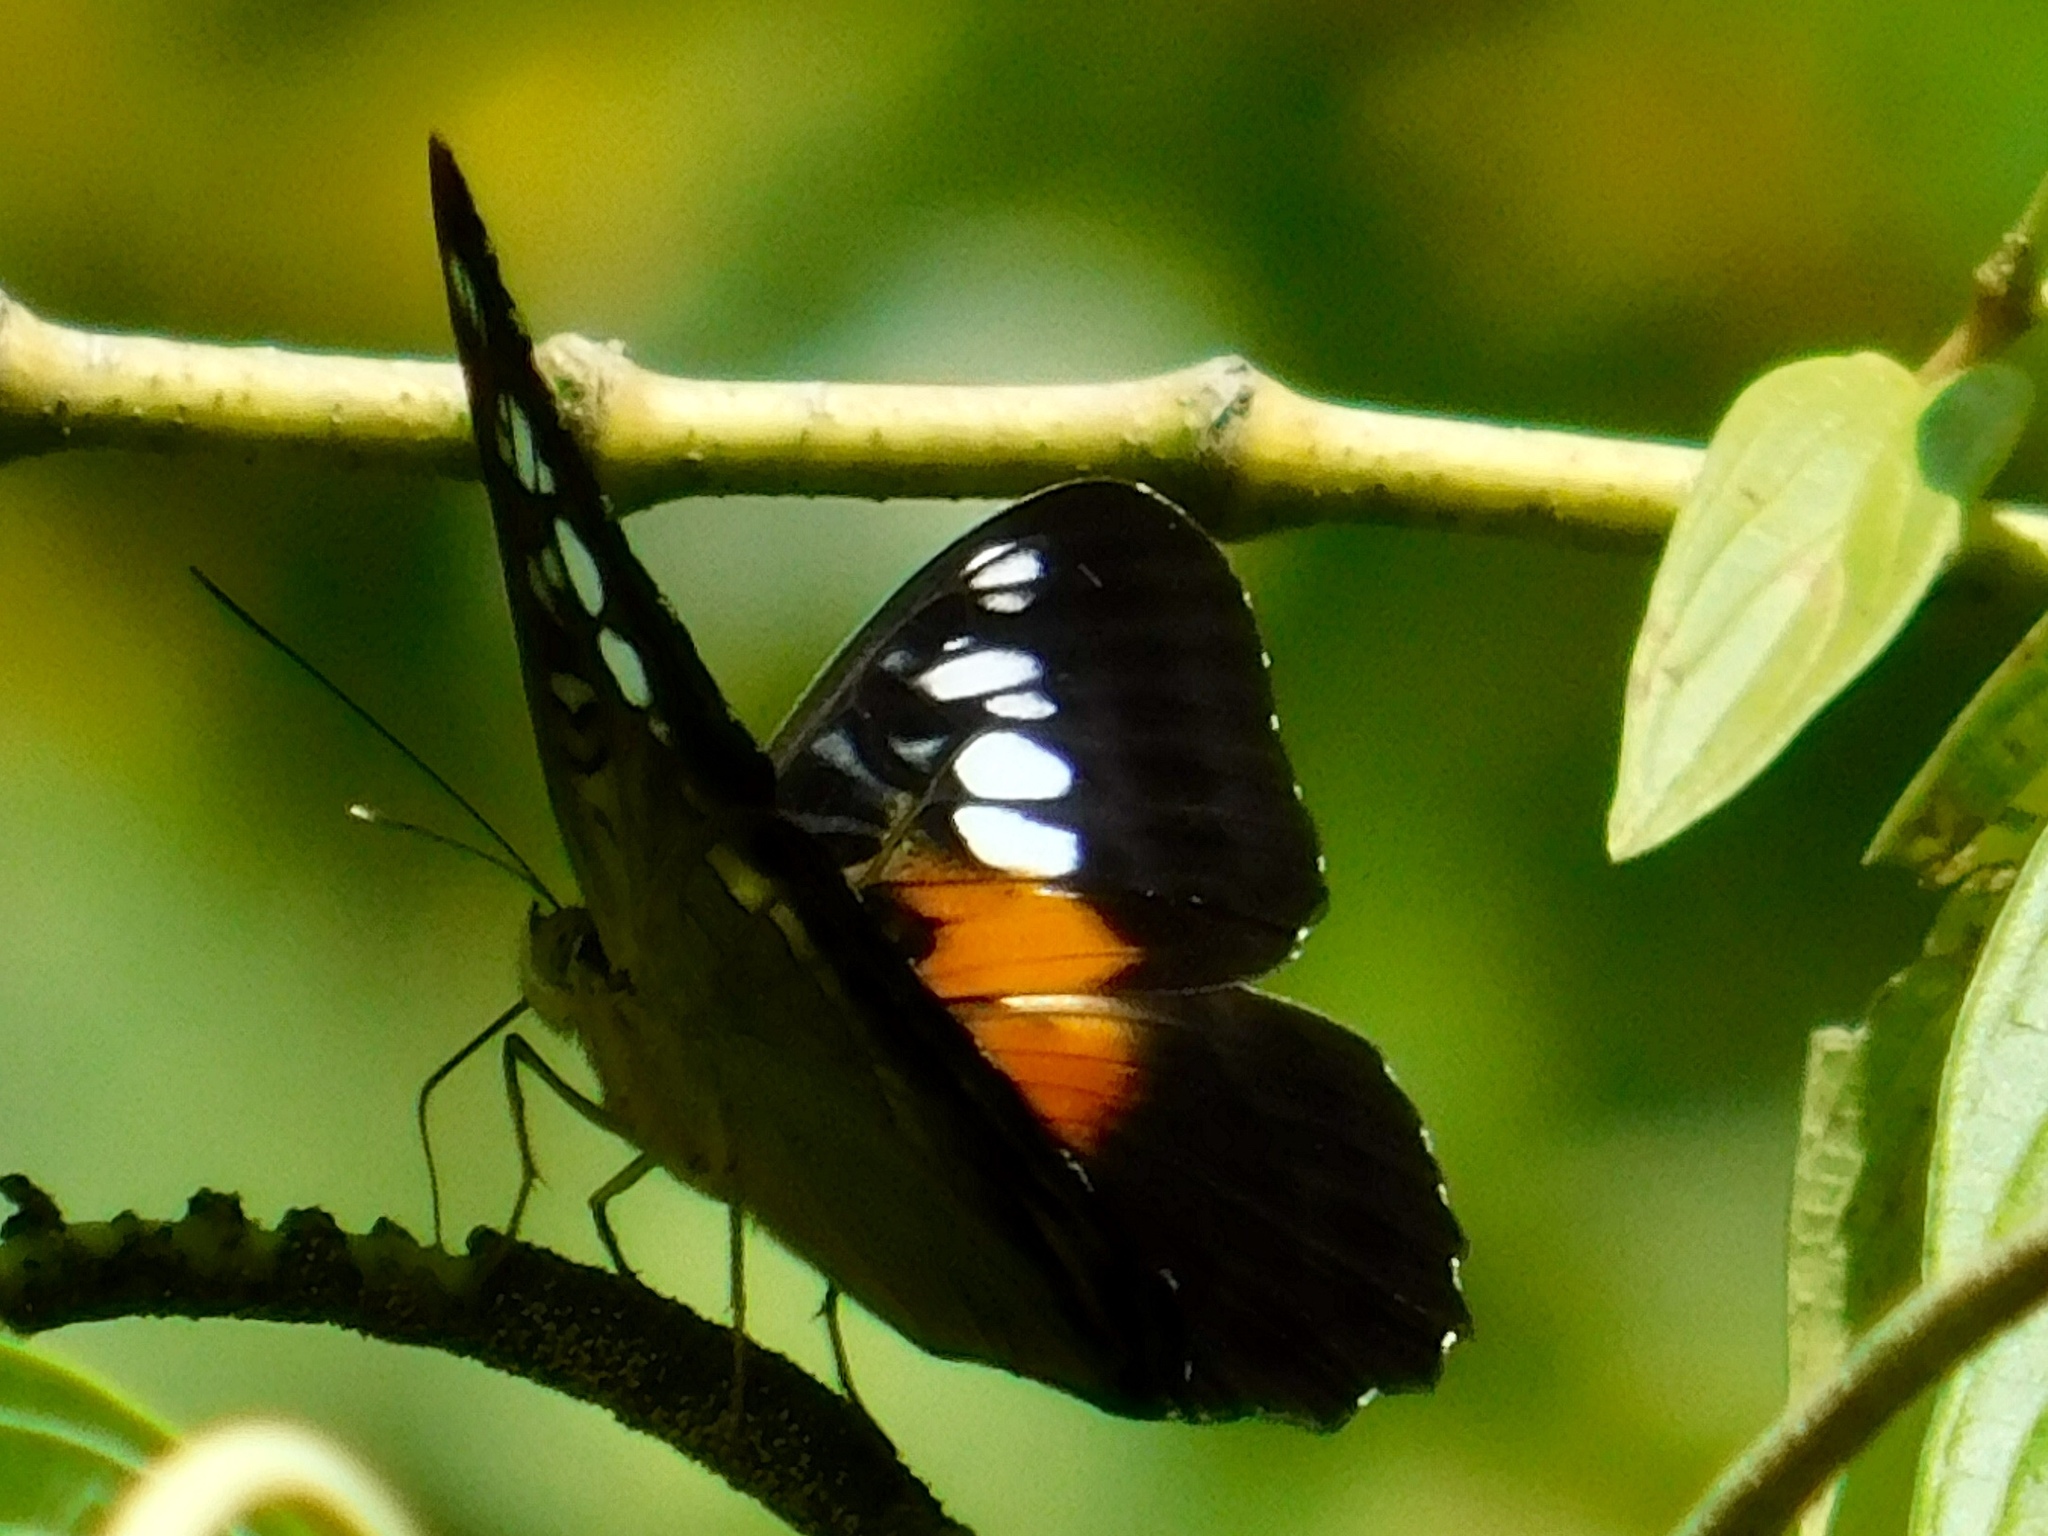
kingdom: Animalia
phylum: Arthropoda
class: Insecta
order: Lepidoptera
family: Nymphalidae
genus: Parthenos
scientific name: Parthenos tigrina
